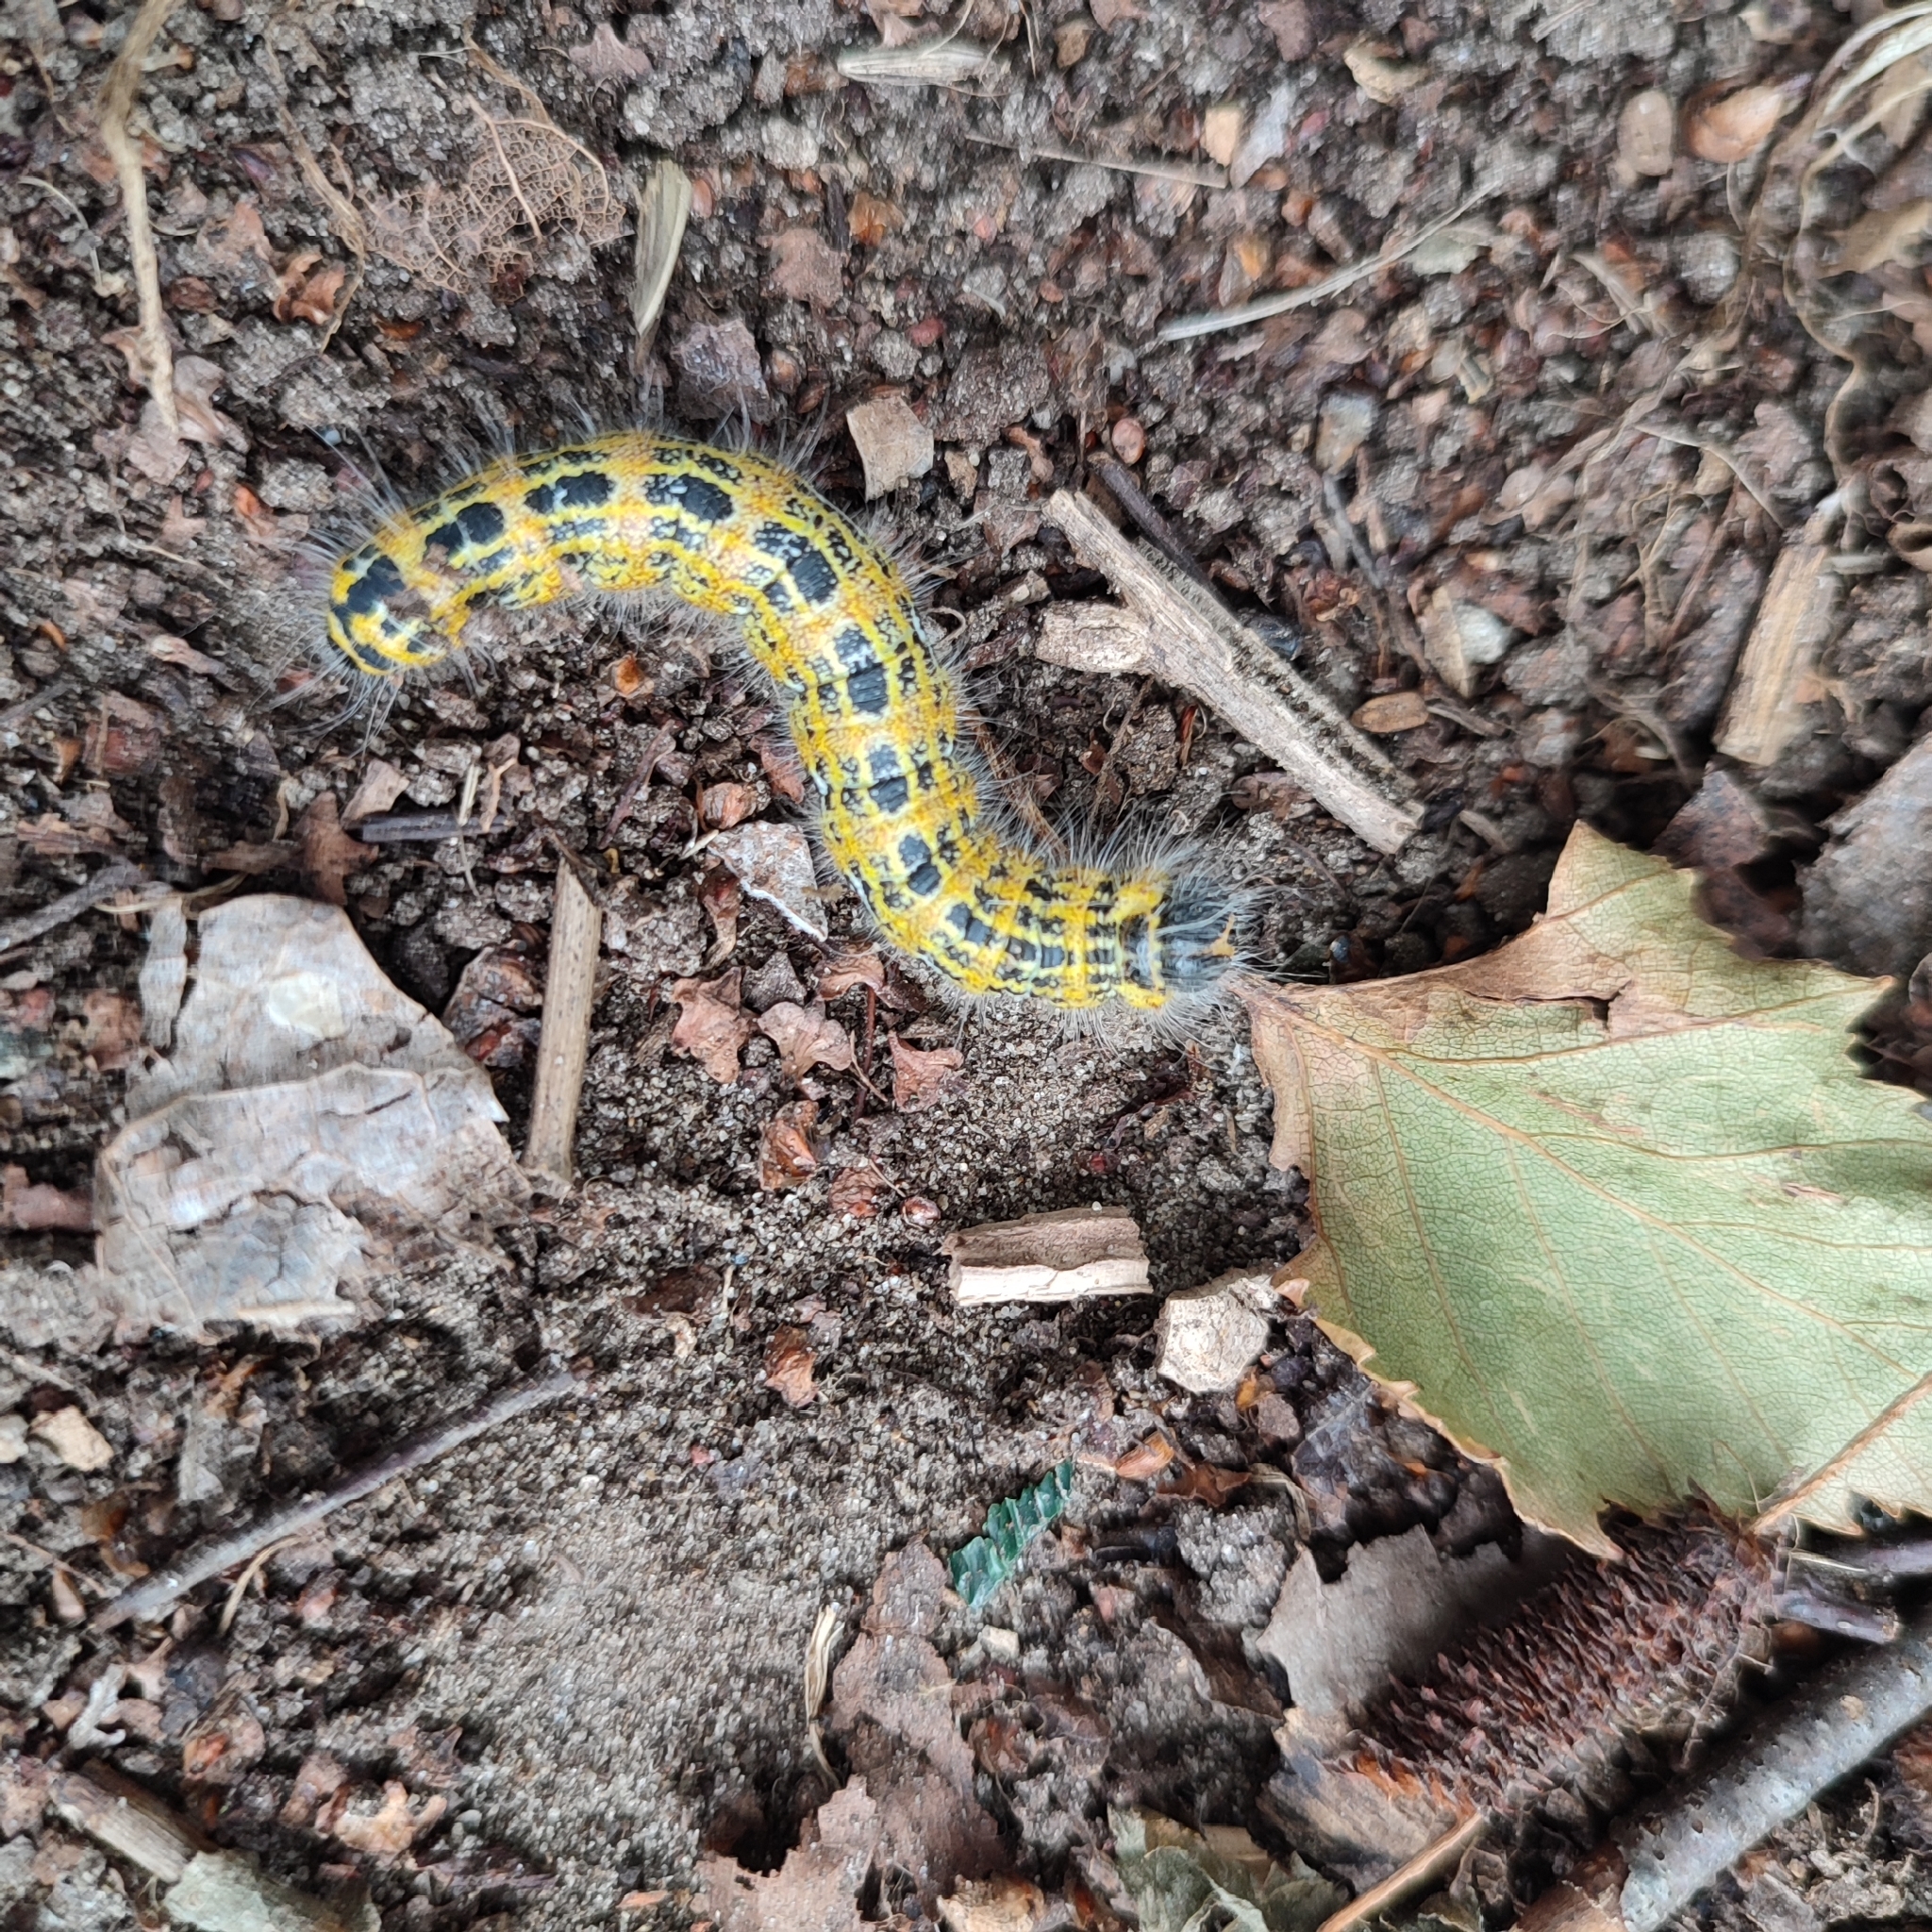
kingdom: Animalia
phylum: Arthropoda
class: Insecta
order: Lepidoptera
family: Notodontidae
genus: Phalera
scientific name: Phalera bucephala
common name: Buff-tip
